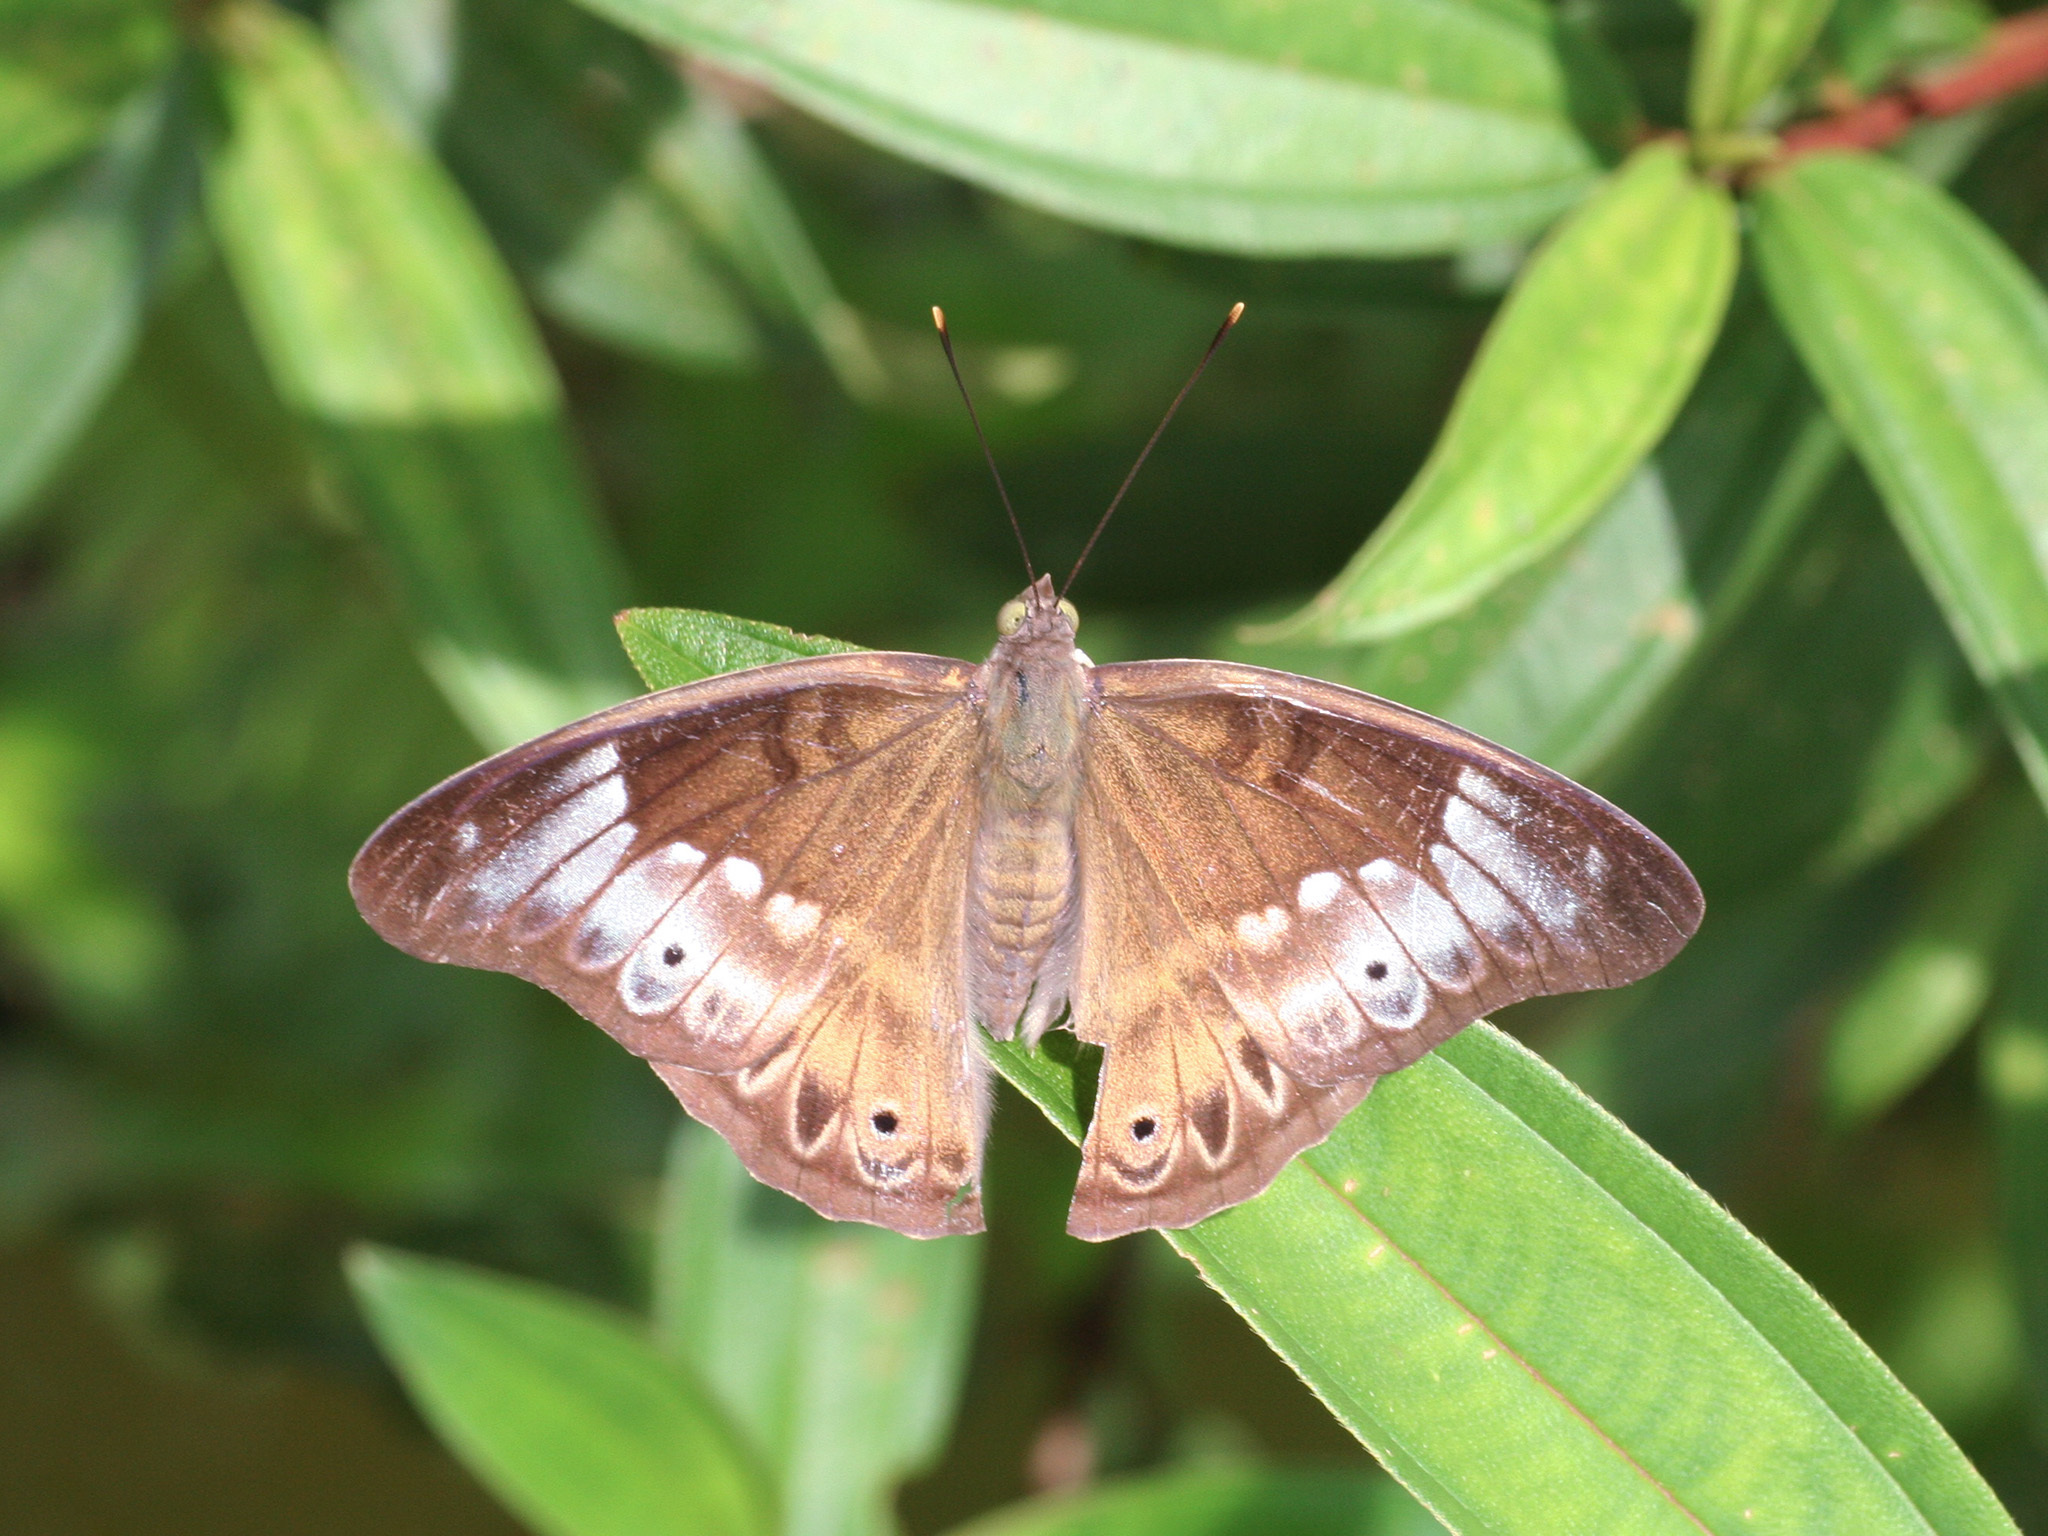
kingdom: Animalia
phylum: Arthropoda
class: Insecta
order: Lepidoptera
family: Nymphalidae
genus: Eulaceura
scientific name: Eulaceura osteria
